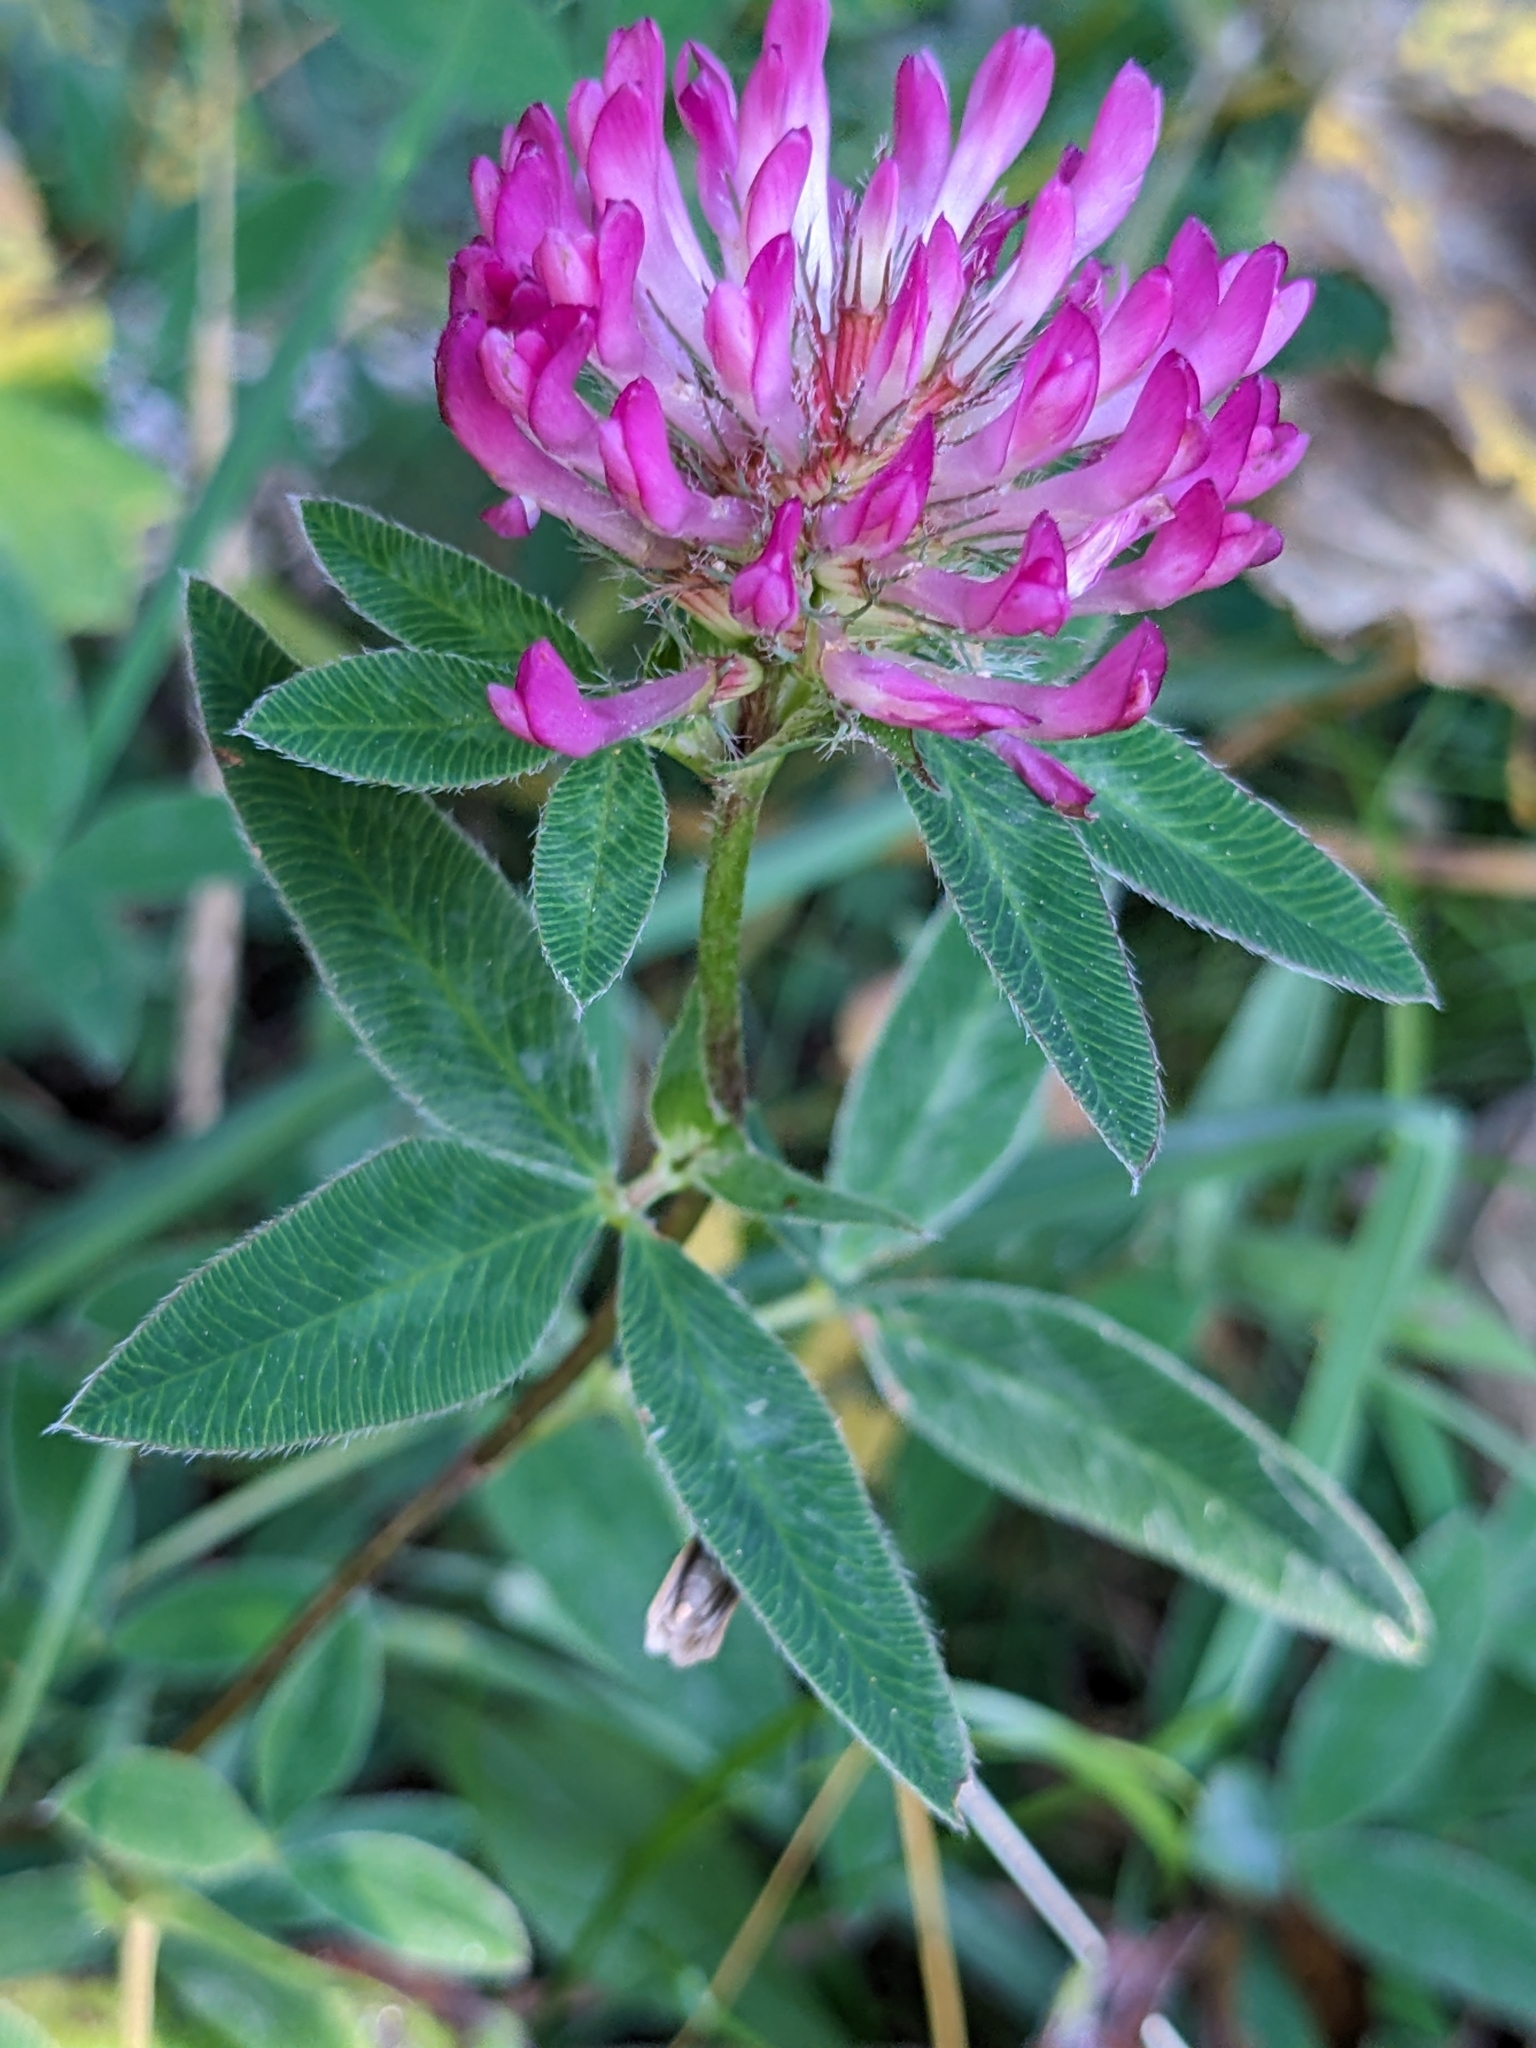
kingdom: Plantae
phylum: Tracheophyta
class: Magnoliopsida
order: Fabales
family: Fabaceae
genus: Trifolium
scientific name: Trifolium medium
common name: Zigzag clover
